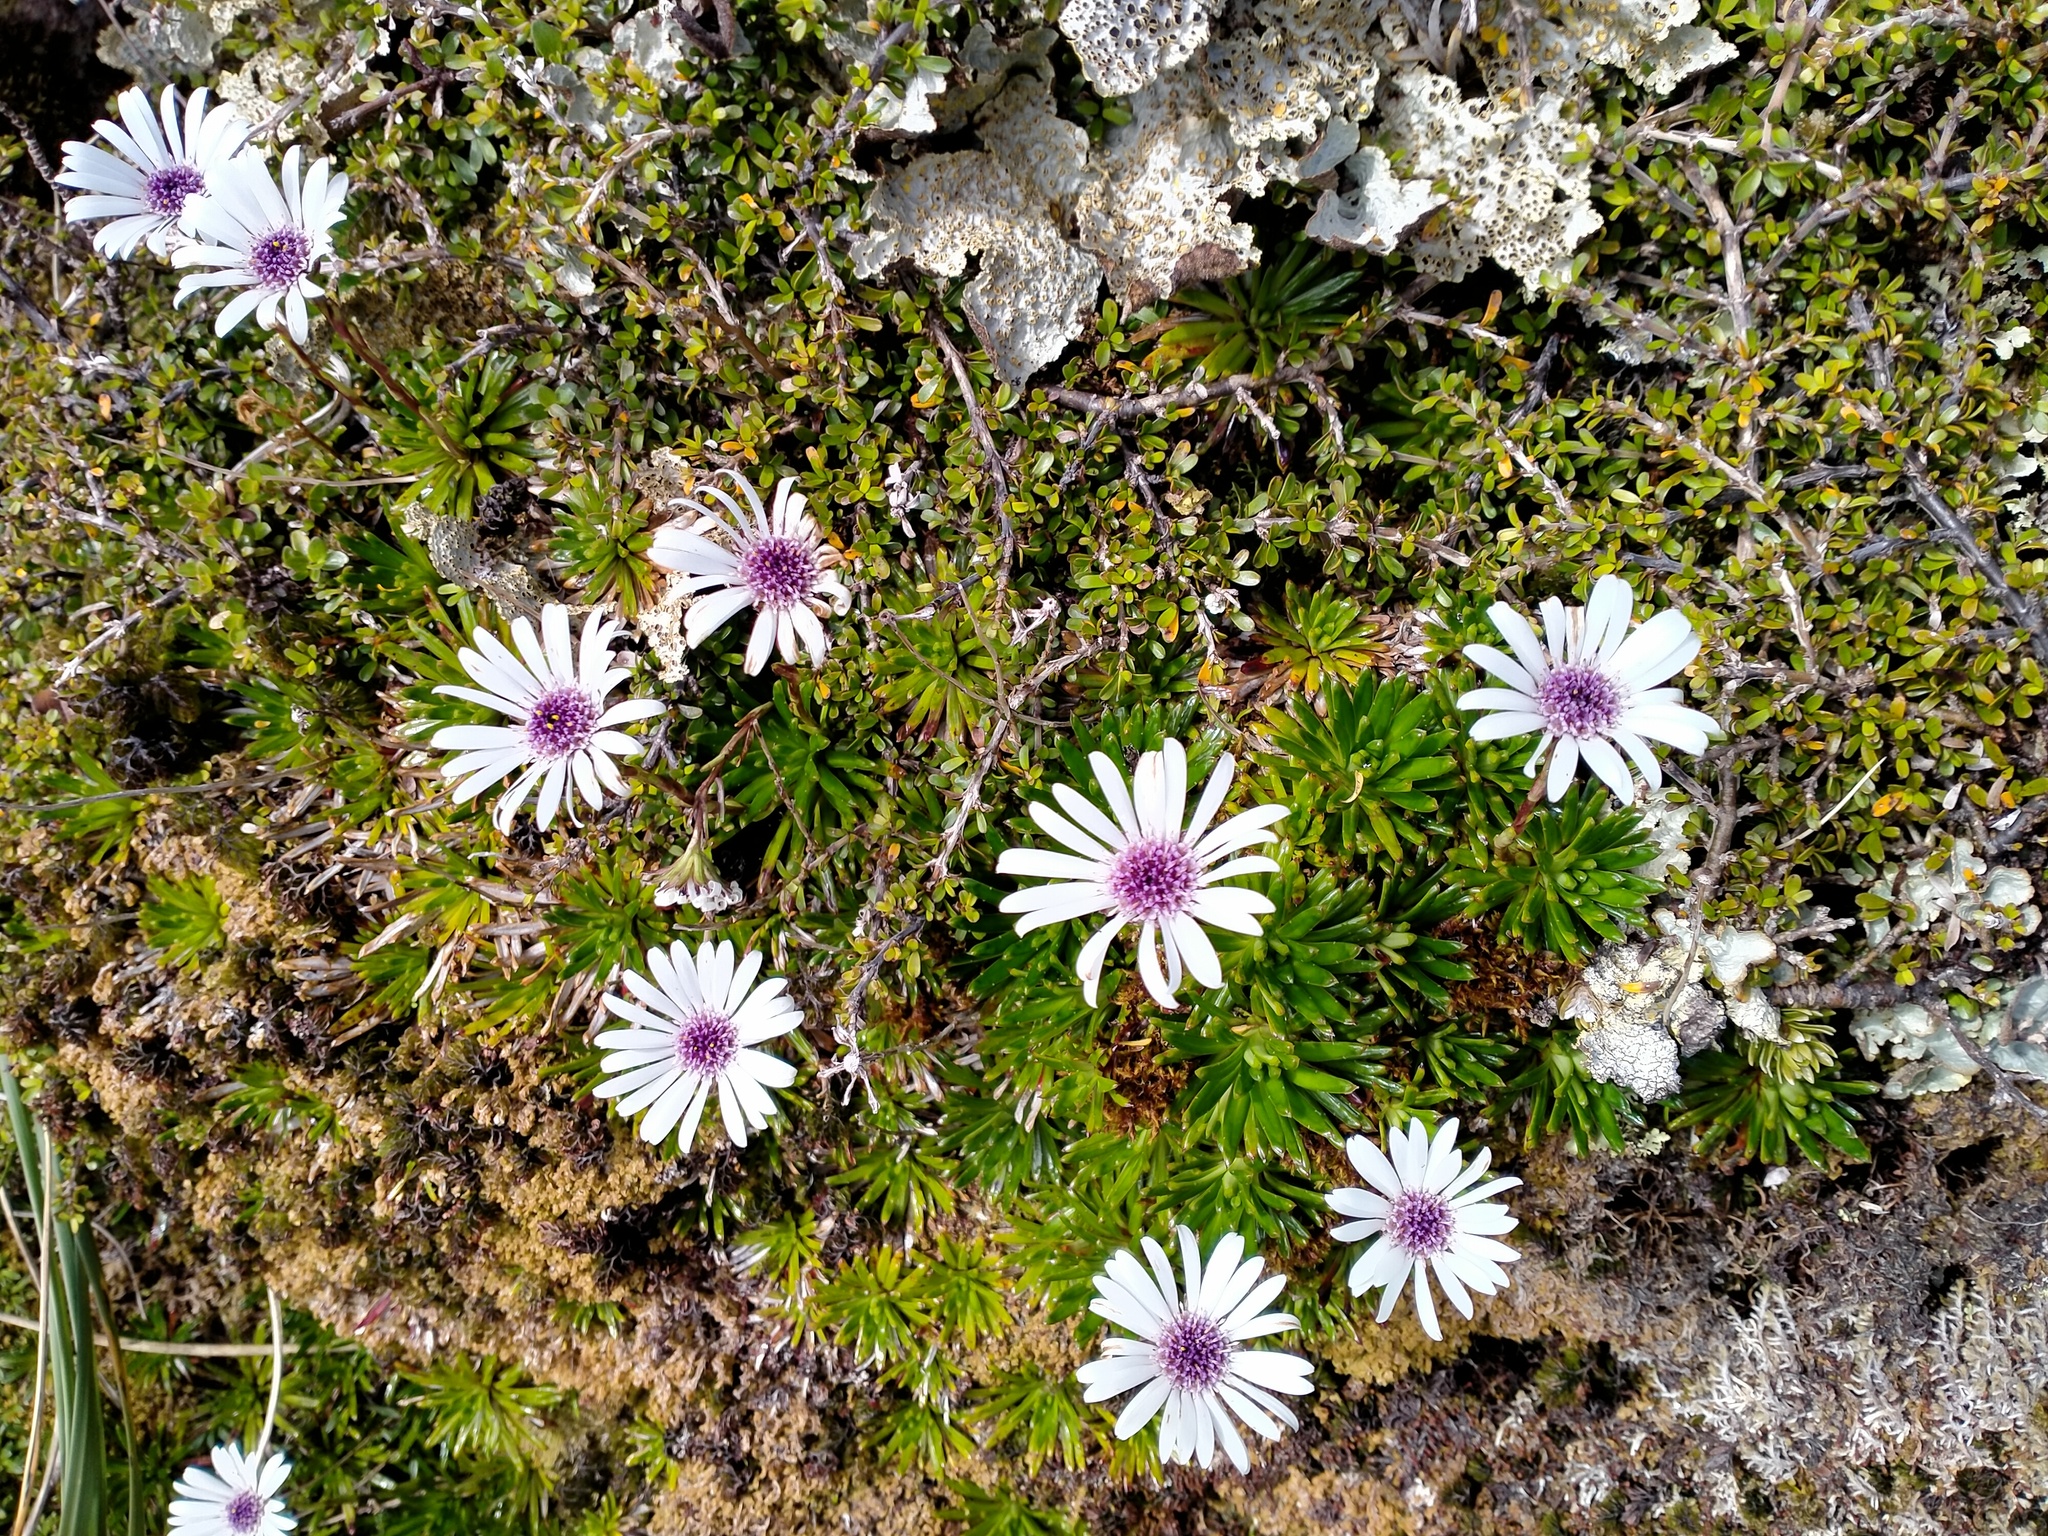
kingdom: Plantae
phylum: Tracheophyta
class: Magnoliopsida
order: Asterales
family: Asteraceae
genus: Damnamenia
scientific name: Damnamenia vernicosa
